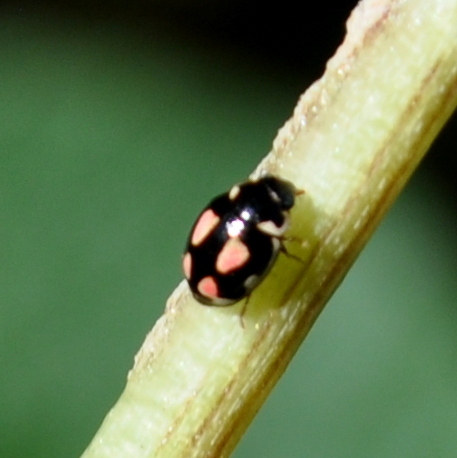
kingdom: Animalia
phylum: Arthropoda
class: Insecta
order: Coleoptera
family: Coccinellidae
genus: Hyperaspis
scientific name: Hyperaspis festiva
